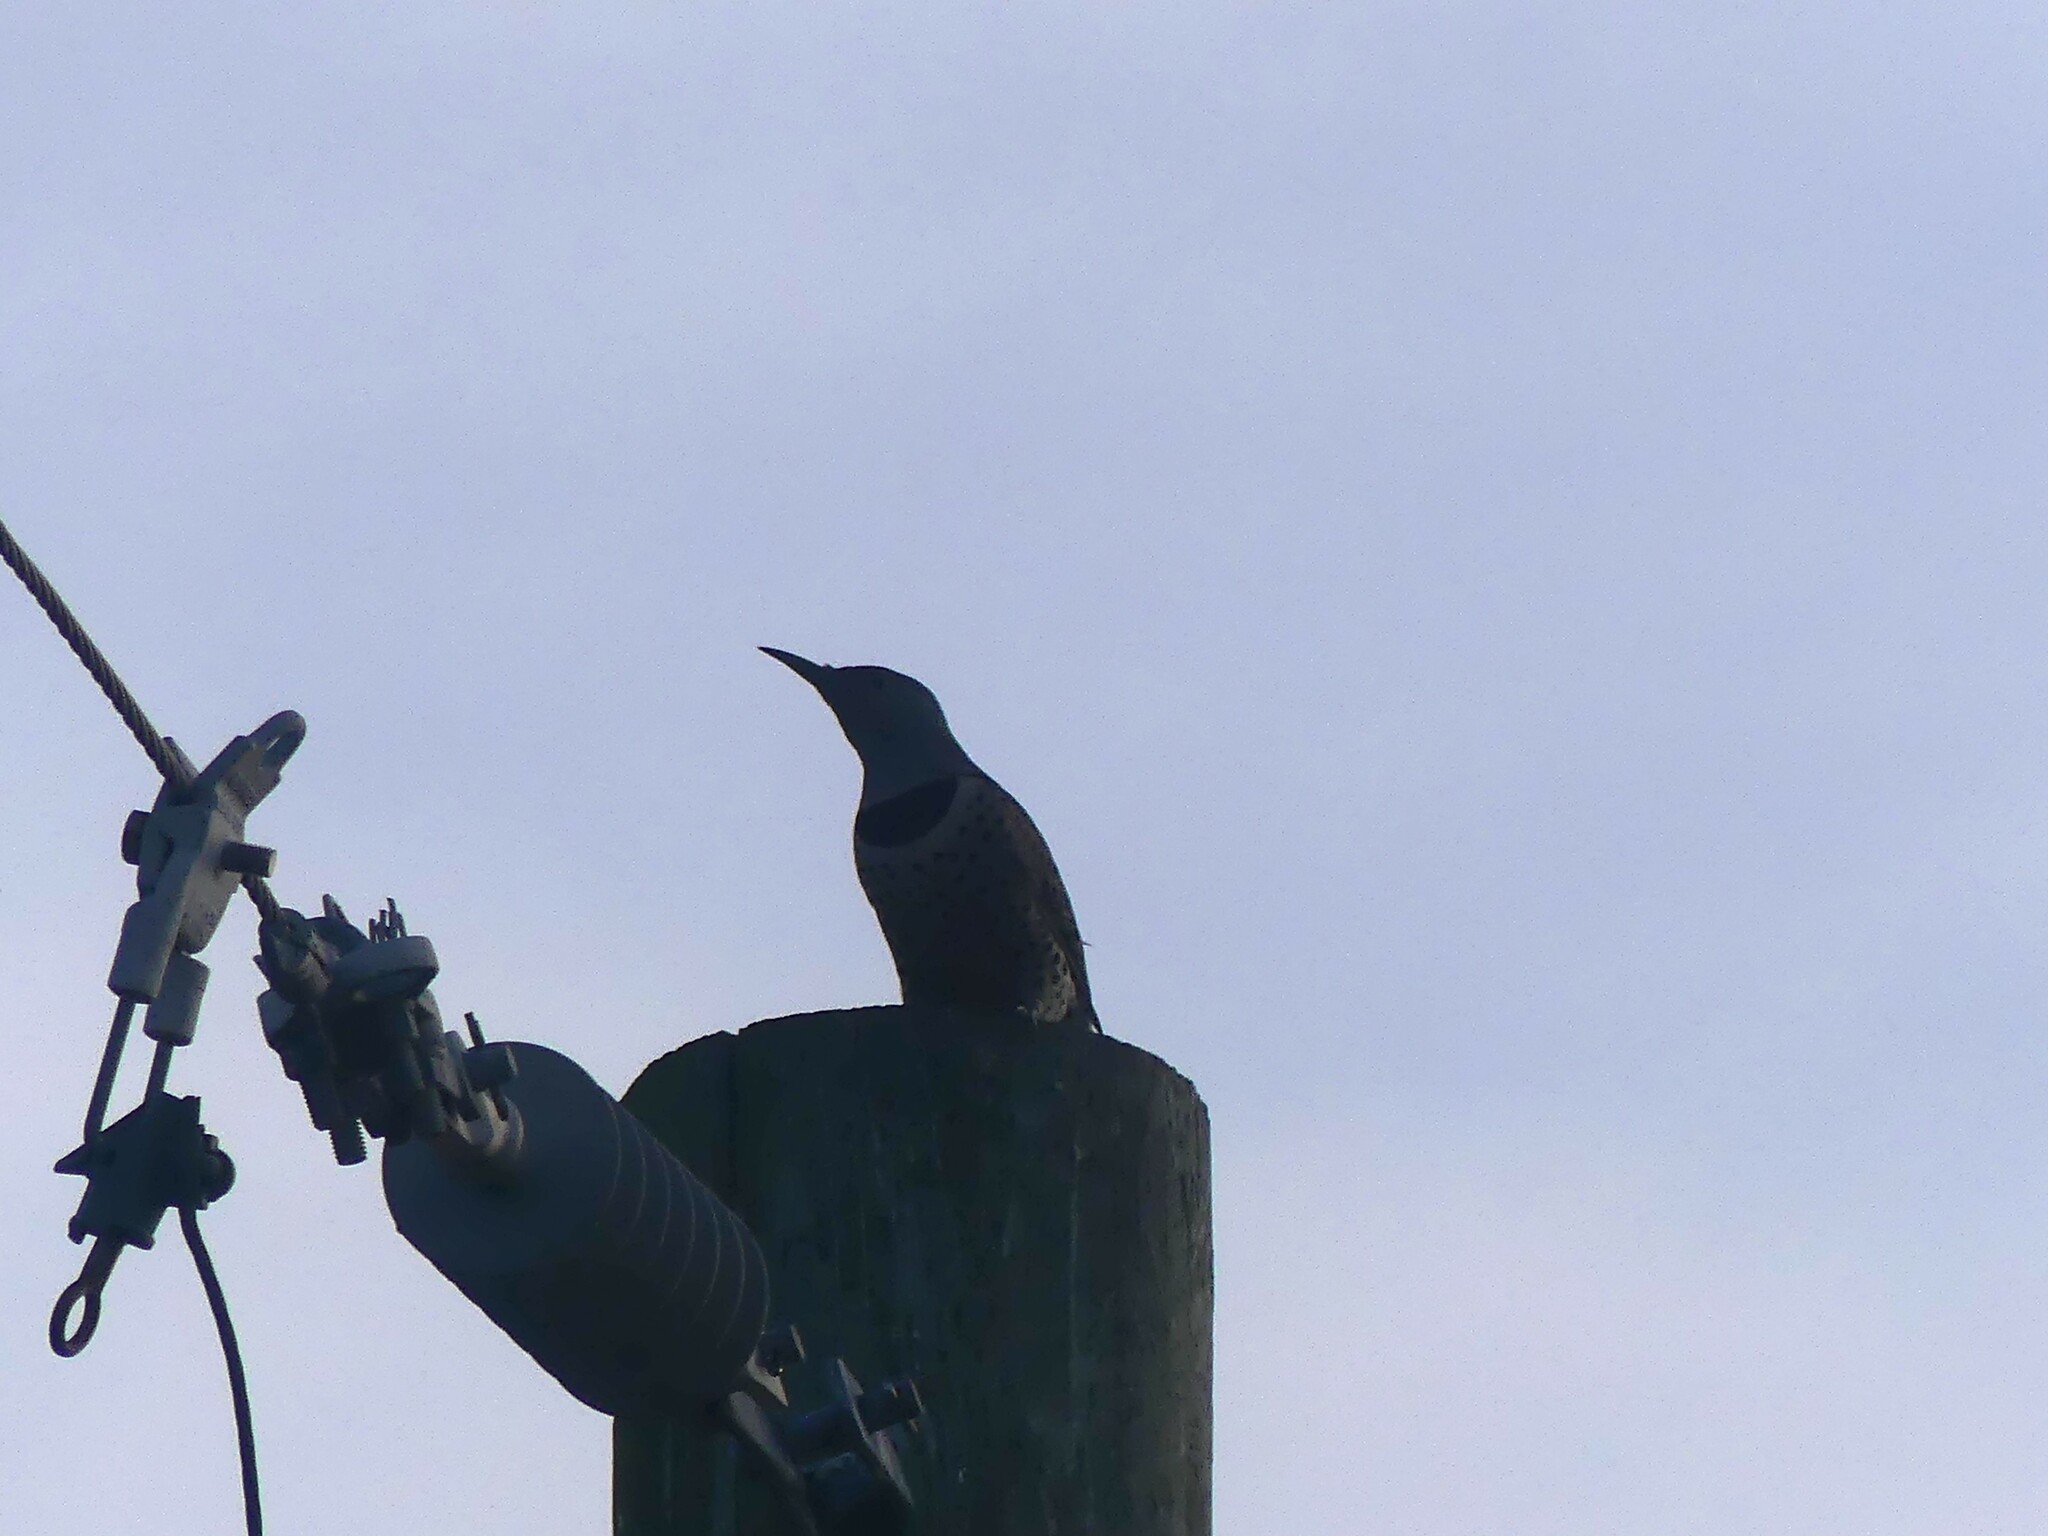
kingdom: Animalia
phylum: Chordata
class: Aves
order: Piciformes
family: Picidae
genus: Colaptes
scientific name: Colaptes auratus
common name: Northern flicker
